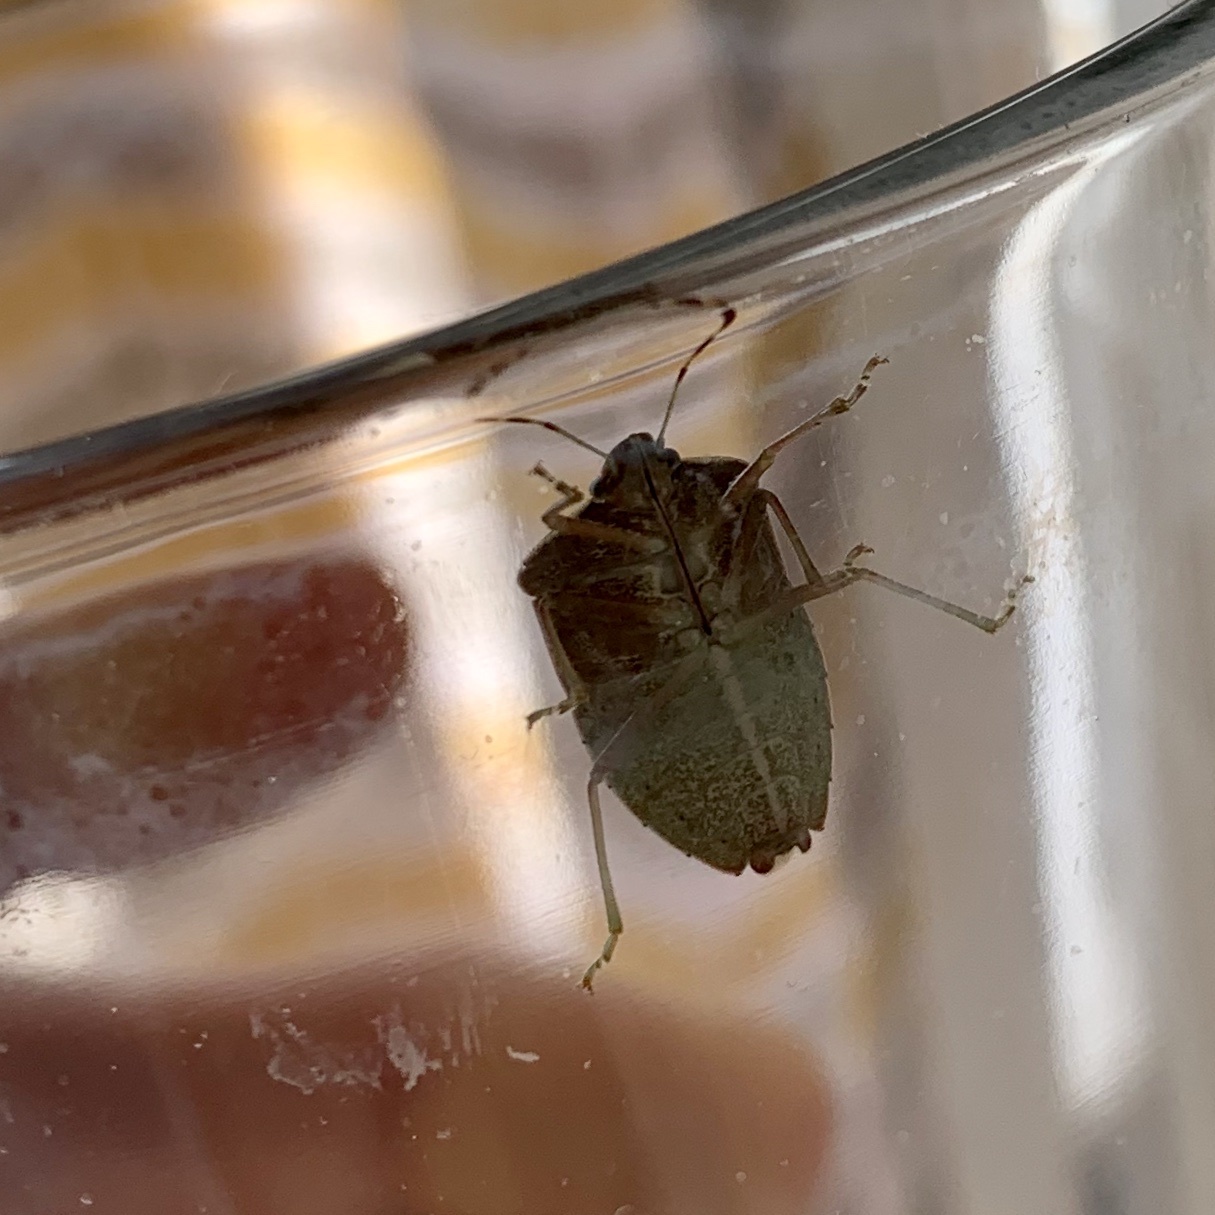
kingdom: Animalia
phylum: Arthropoda
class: Insecta
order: Hemiptera
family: Pentatomidae
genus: Nezara
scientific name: Nezara viridula
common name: Southern green stink bug
